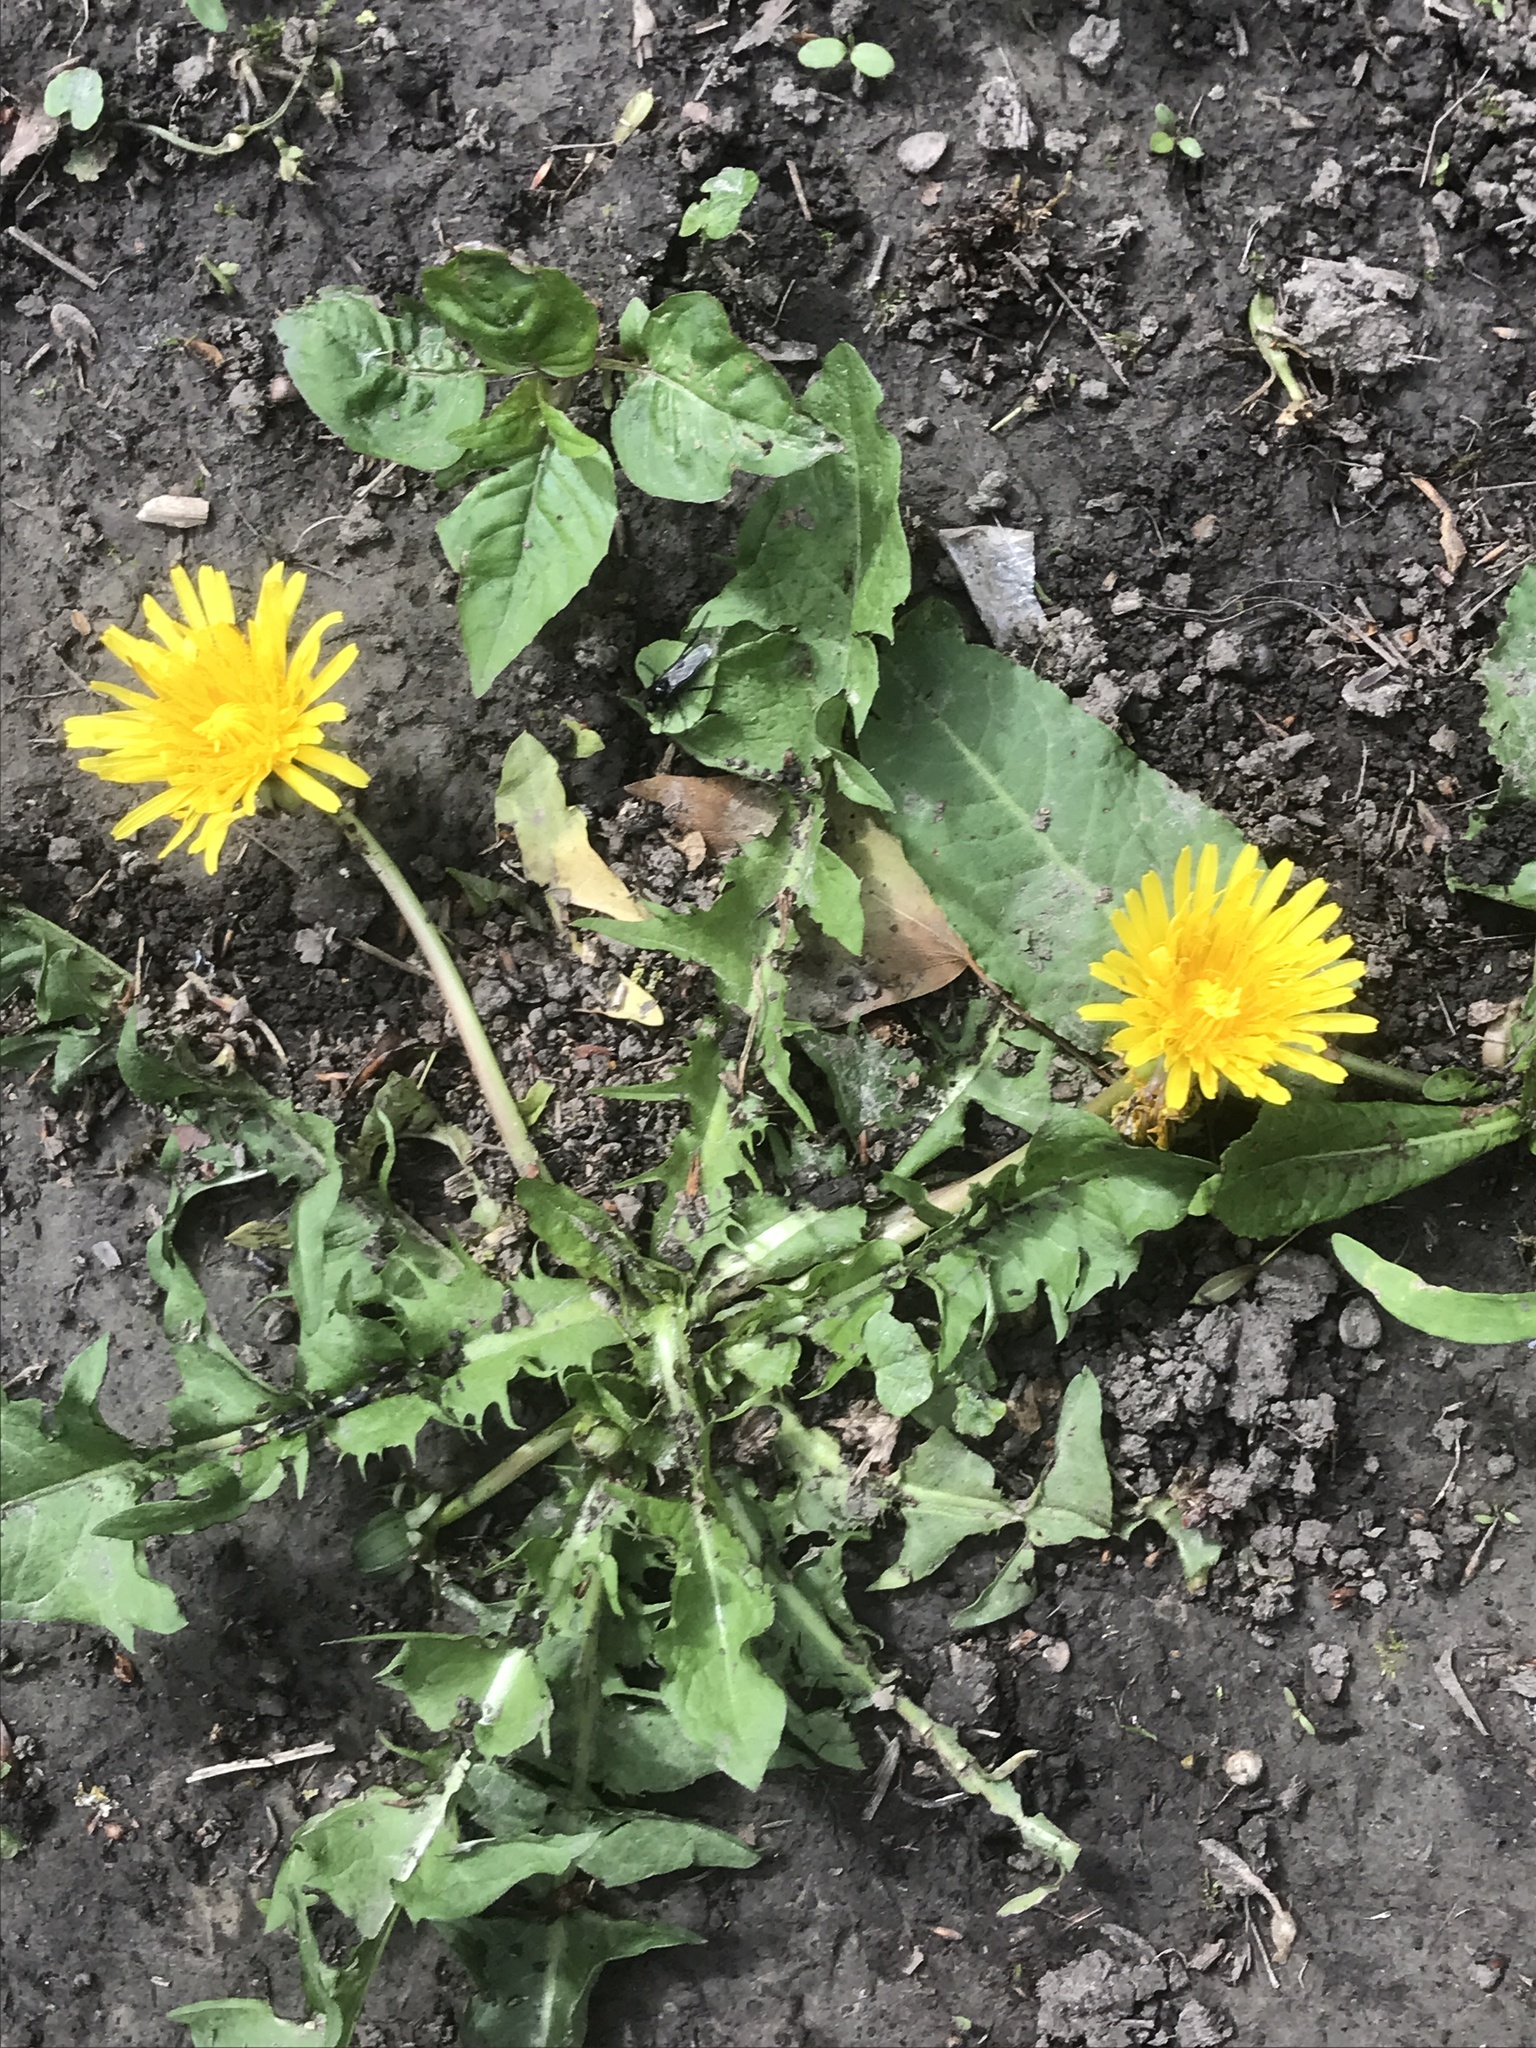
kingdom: Plantae
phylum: Tracheophyta
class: Magnoliopsida
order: Asterales
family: Asteraceae
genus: Taraxacum
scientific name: Taraxacum officinale
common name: Common dandelion
